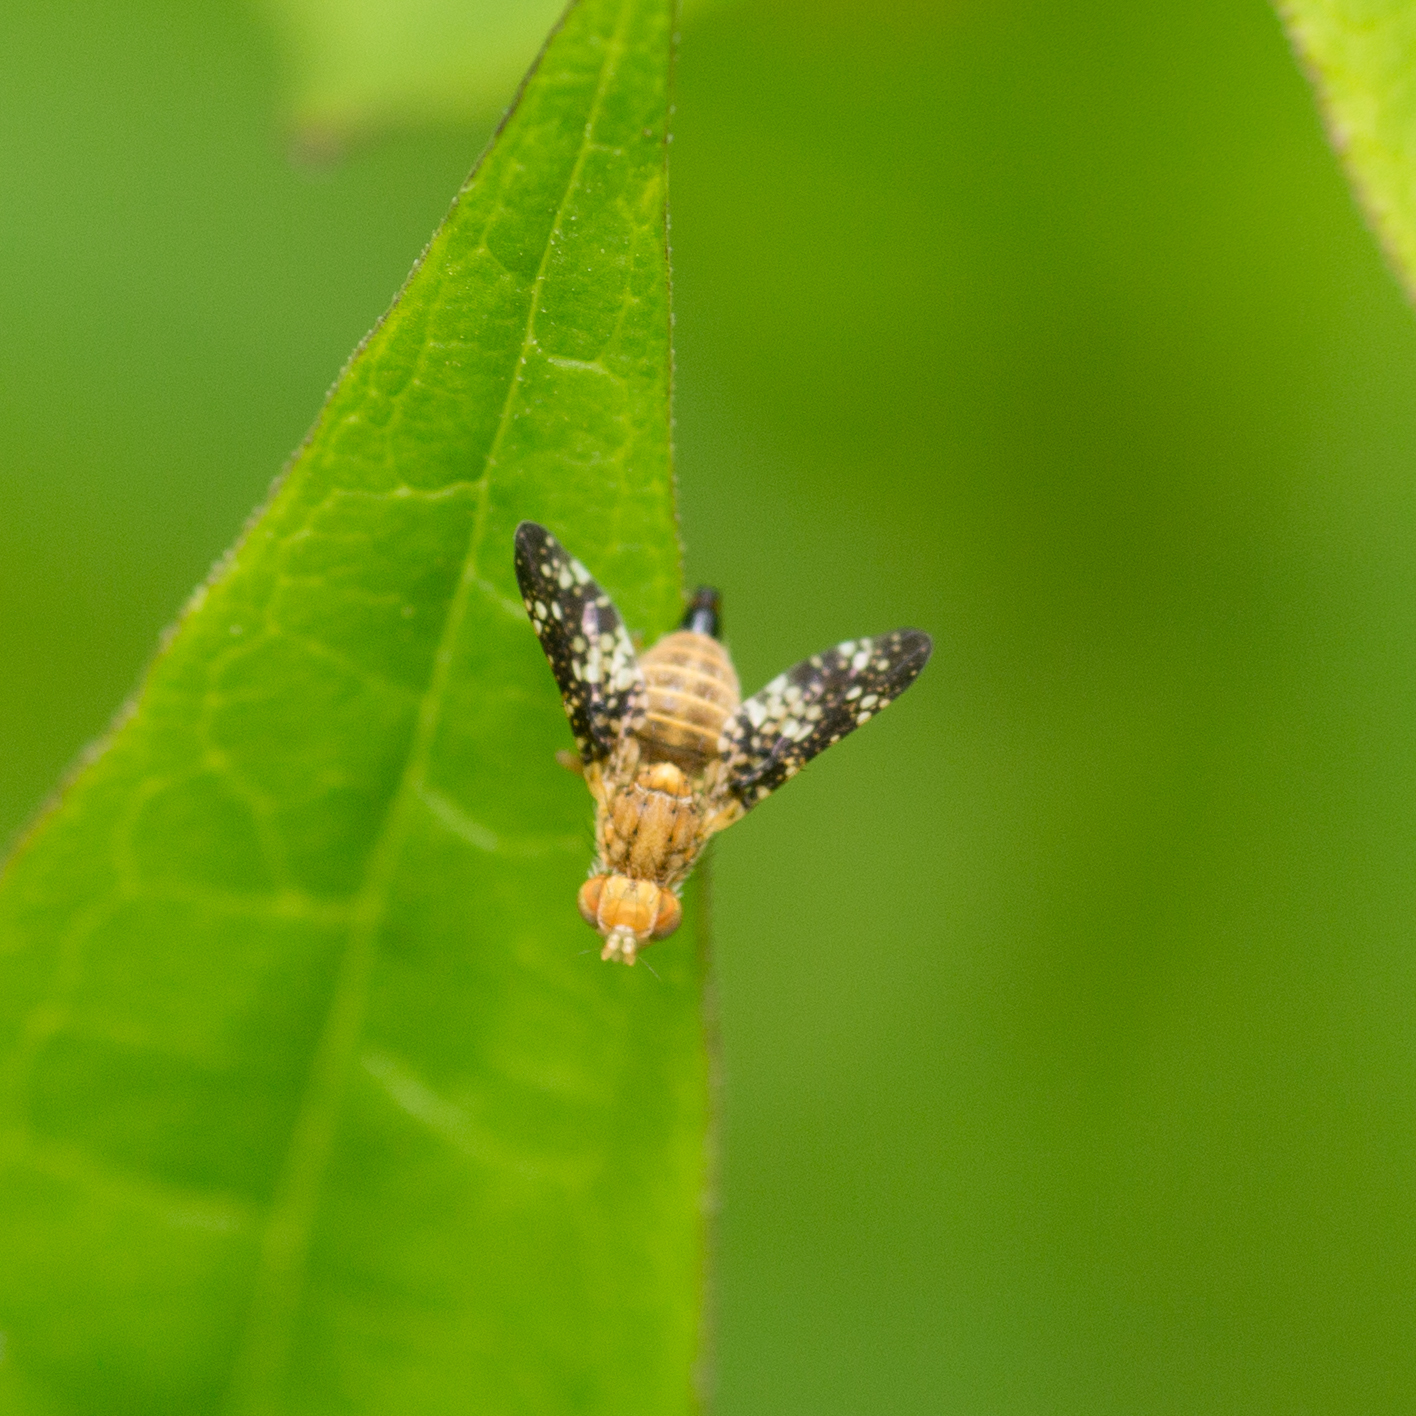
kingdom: Animalia
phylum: Arthropoda
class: Insecta
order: Diptera
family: Tephritidae
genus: Oxyna
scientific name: Oxyna flavipennis
